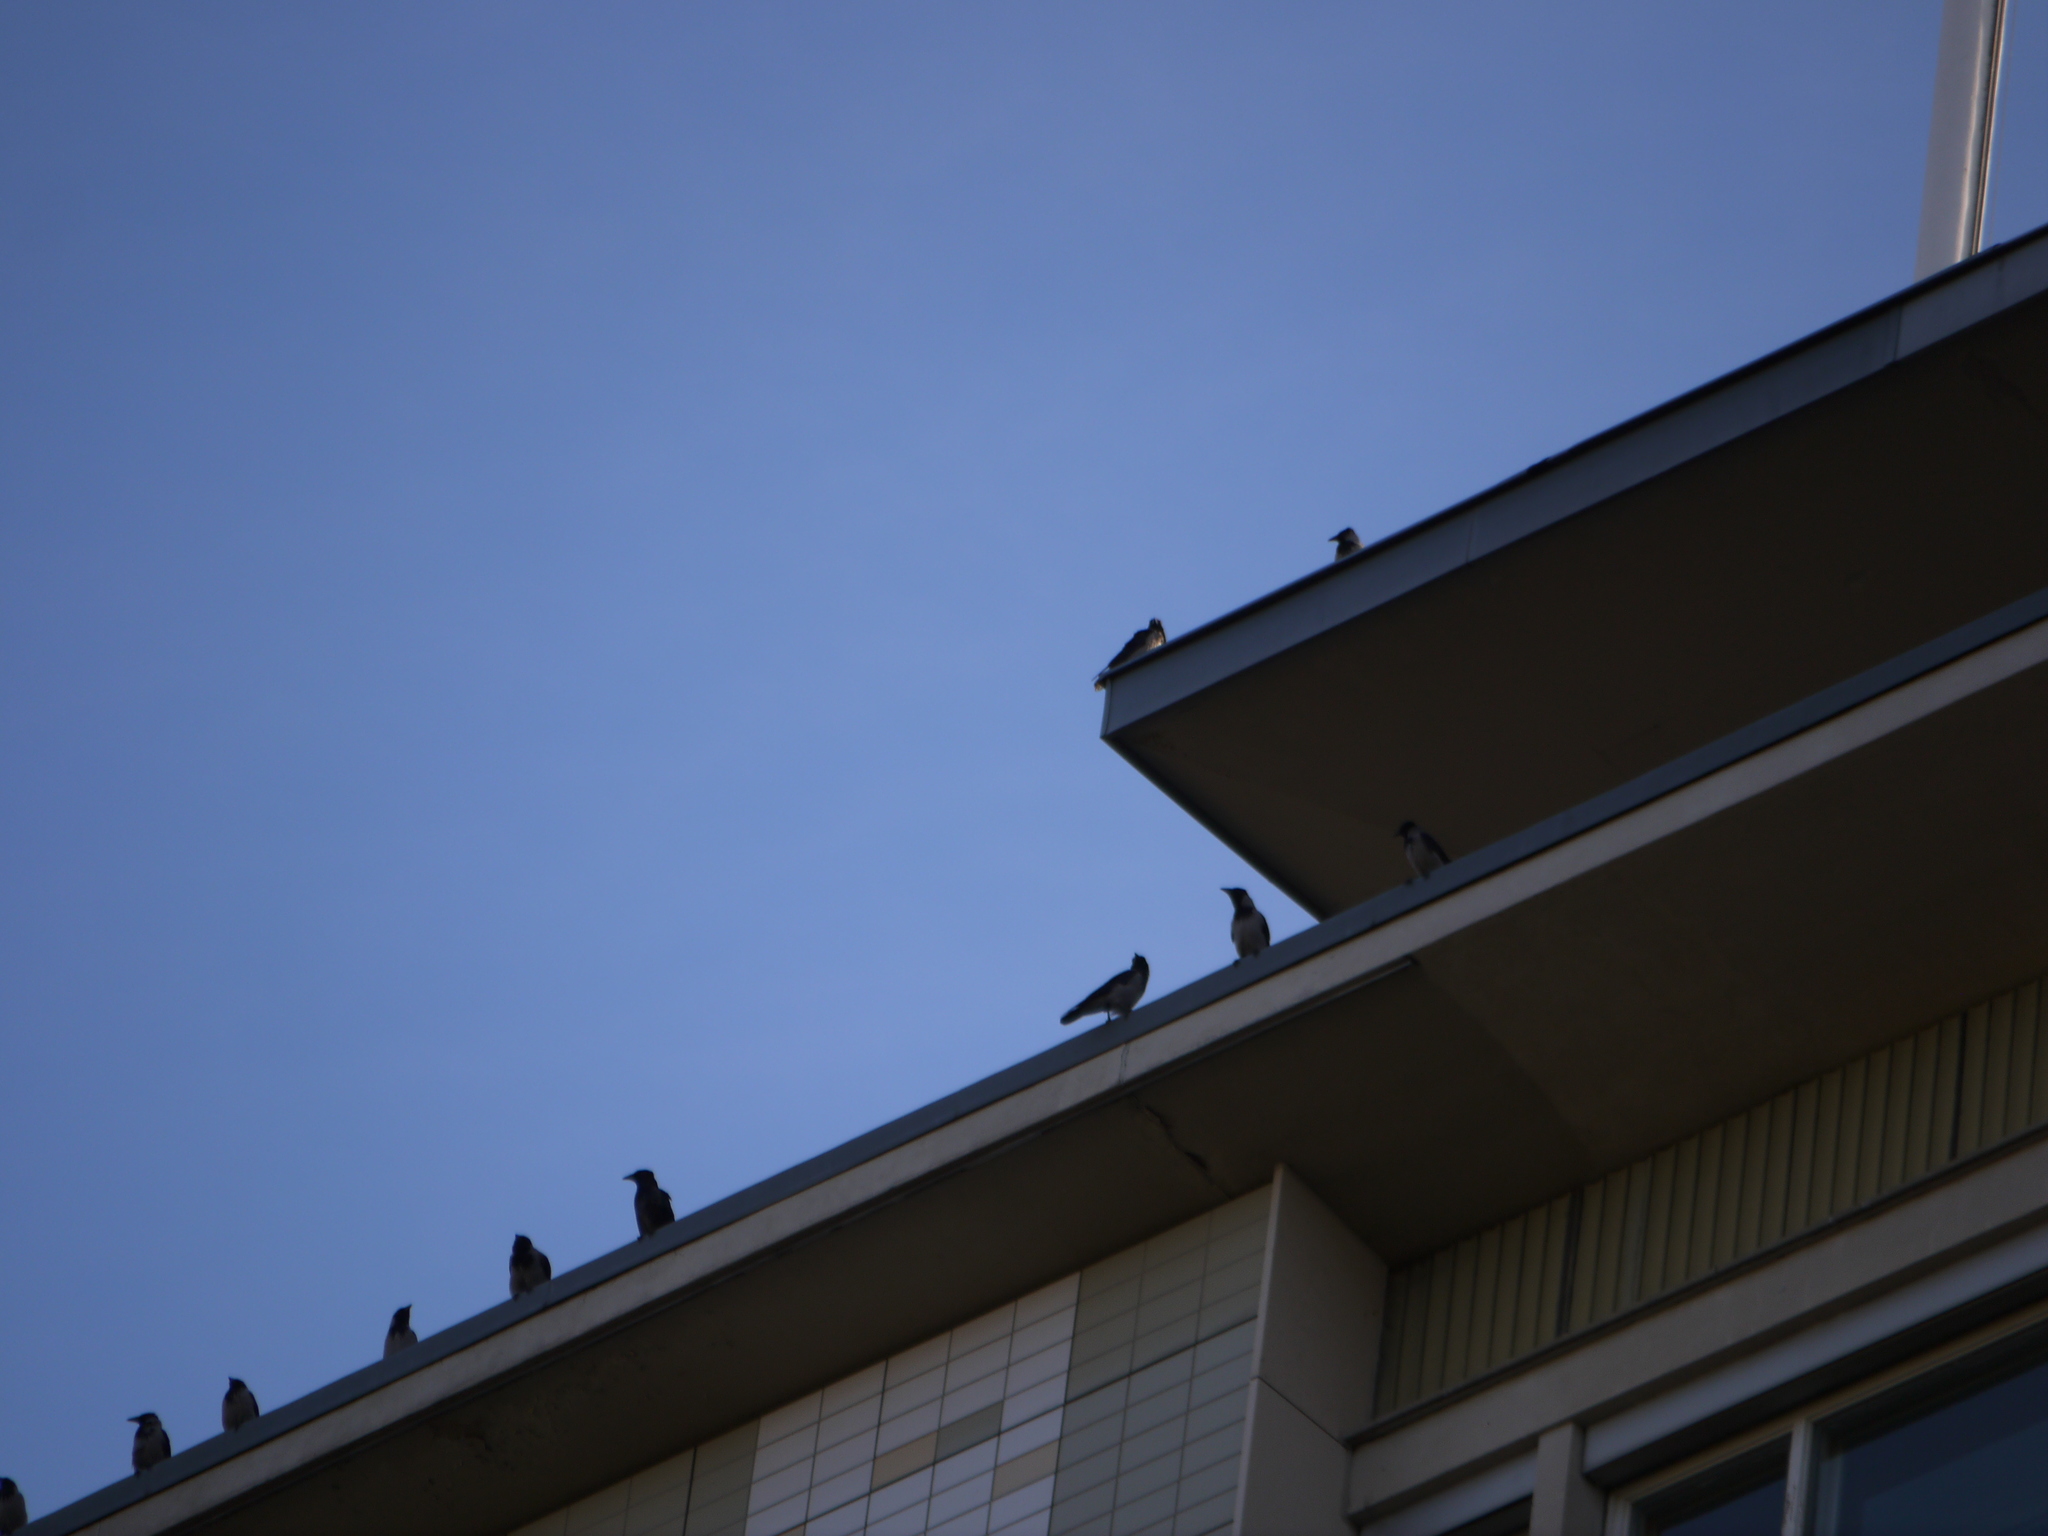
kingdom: Animalia
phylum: Chordata
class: Aves
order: Passeriformes
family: Corvidae
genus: Corvus
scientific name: Corvus cornix
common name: Hooded crow
